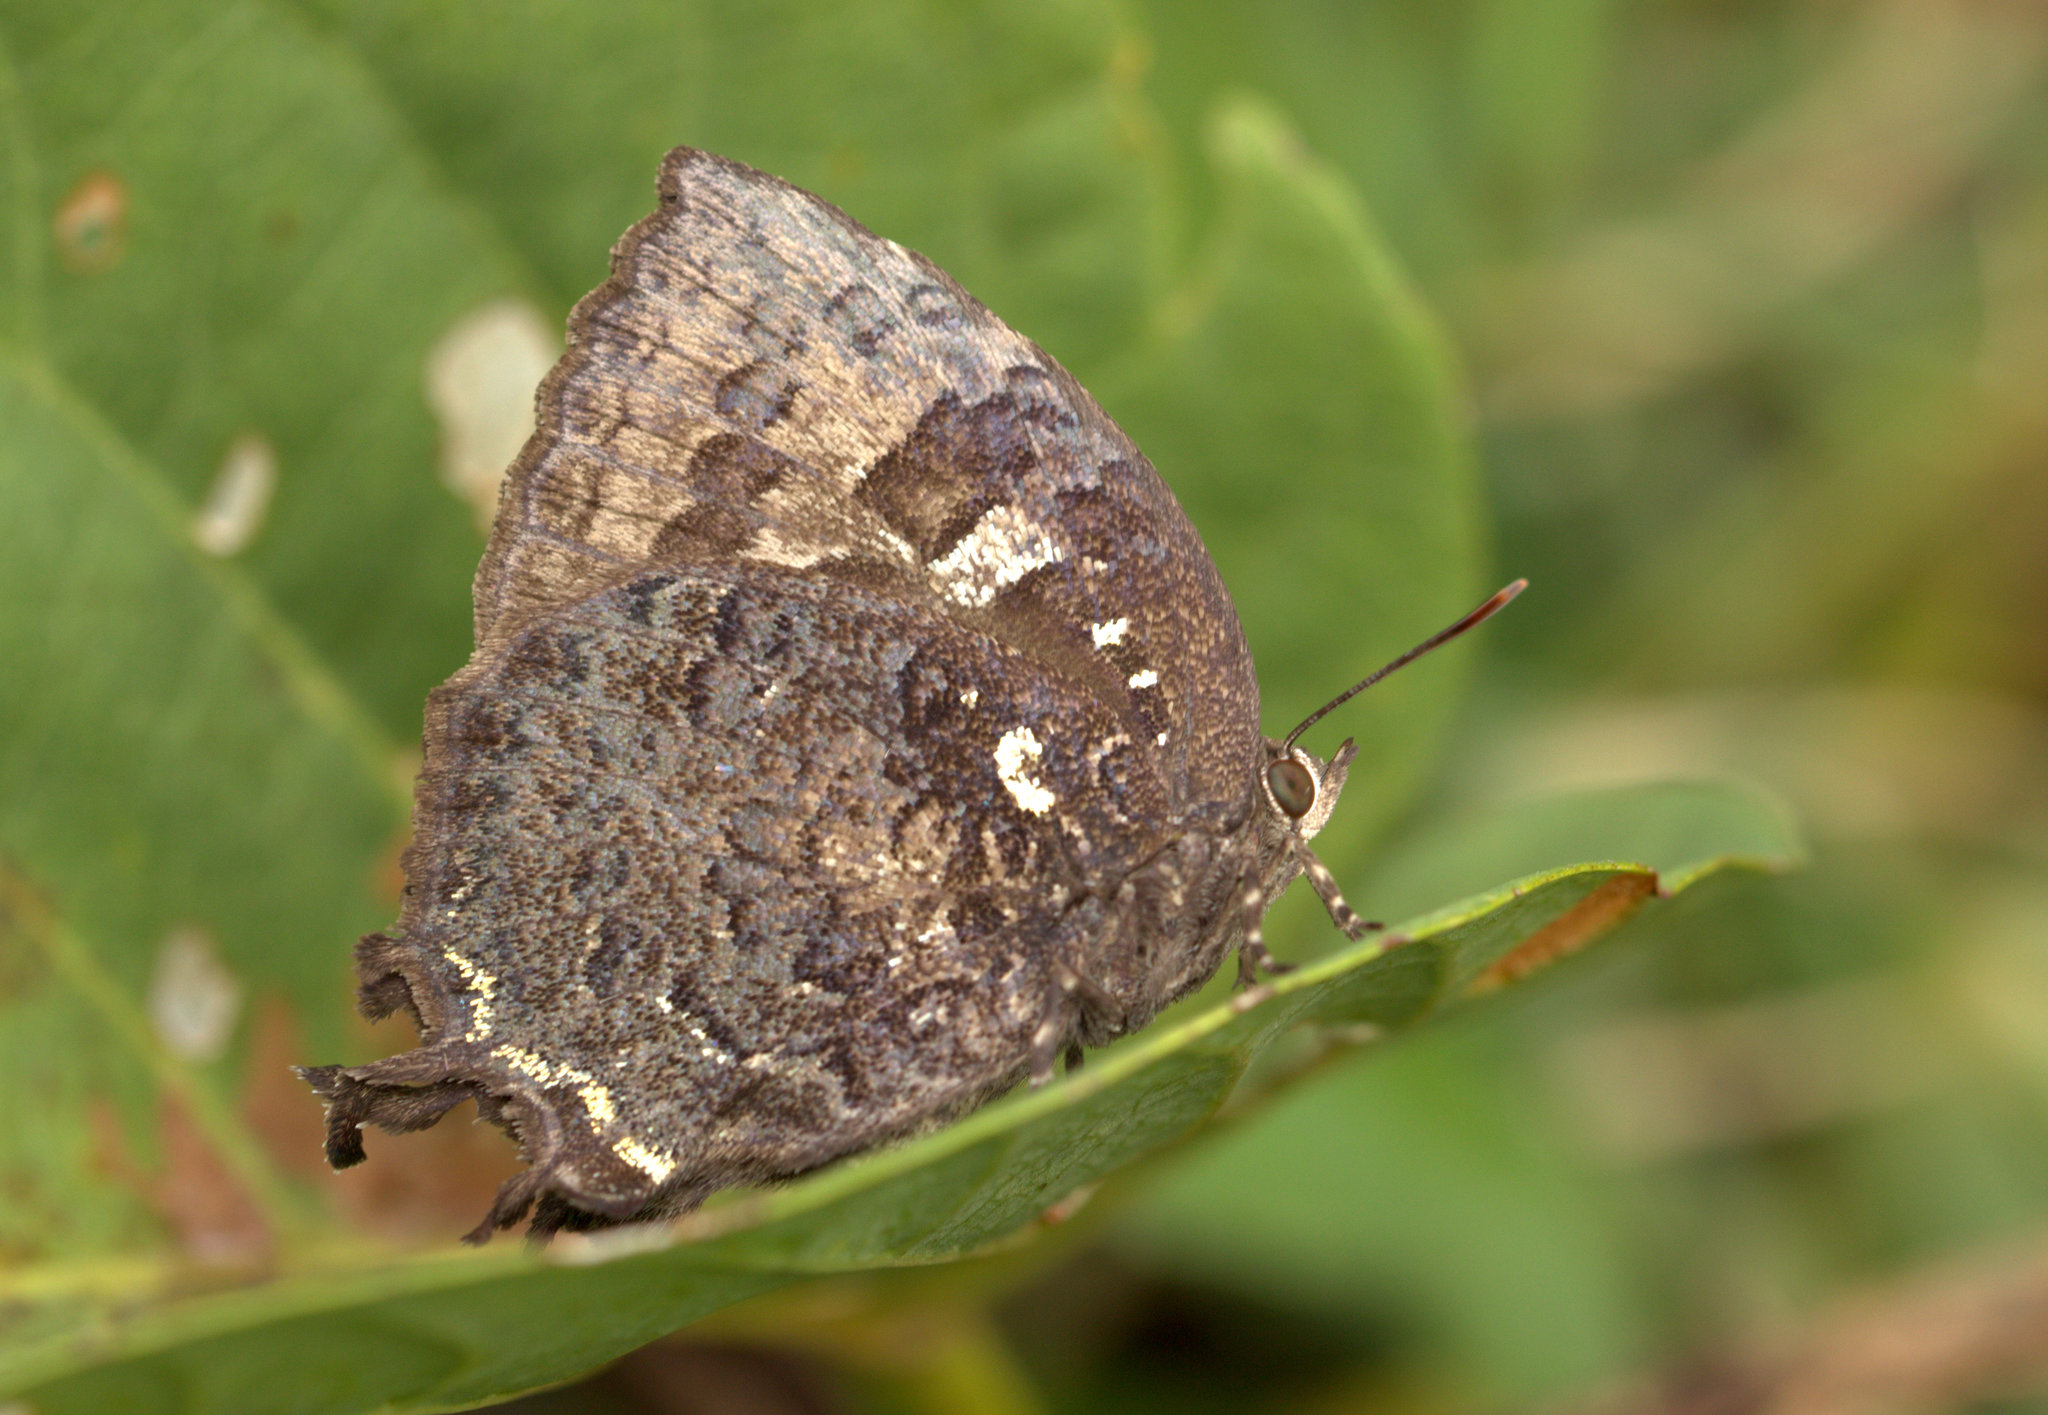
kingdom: Animalia
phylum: Arthropoda
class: Insecta
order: Lepidoptera
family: Lycaenidae
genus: Thaduka
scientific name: Thaduka multicaudata
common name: Many-tailed oakblue
